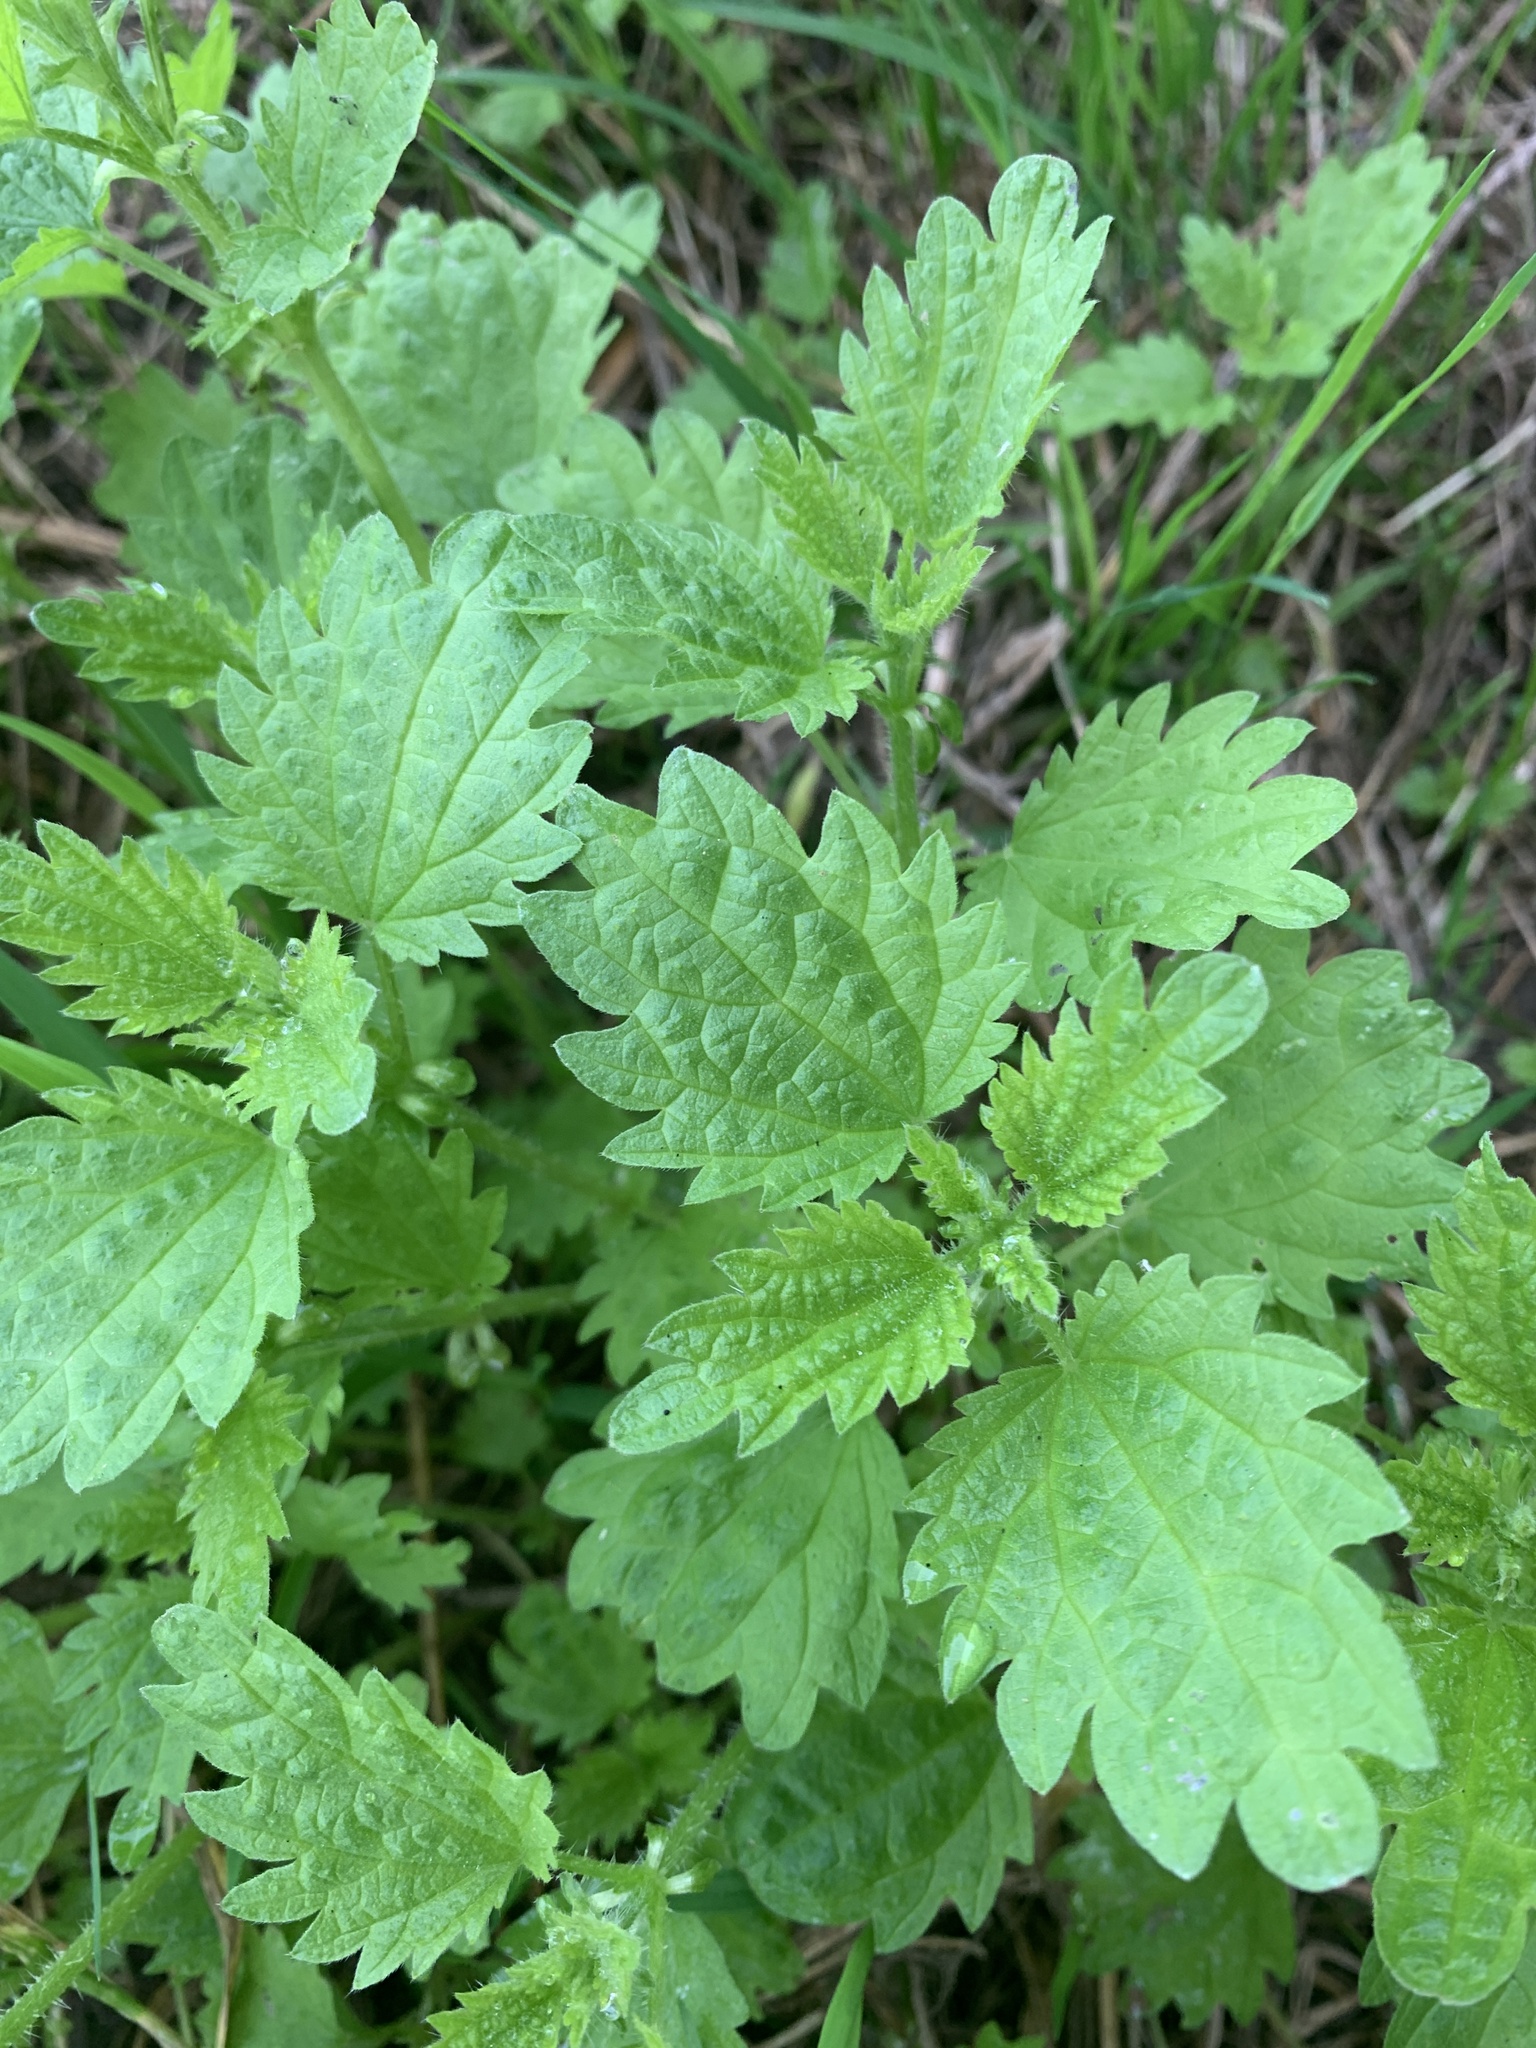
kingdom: Plantae
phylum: Tracheophyta
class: Magnoliopsida
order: Rosales
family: Urticaceae
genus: Urtica
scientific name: Urtica dioica
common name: Common nettle
